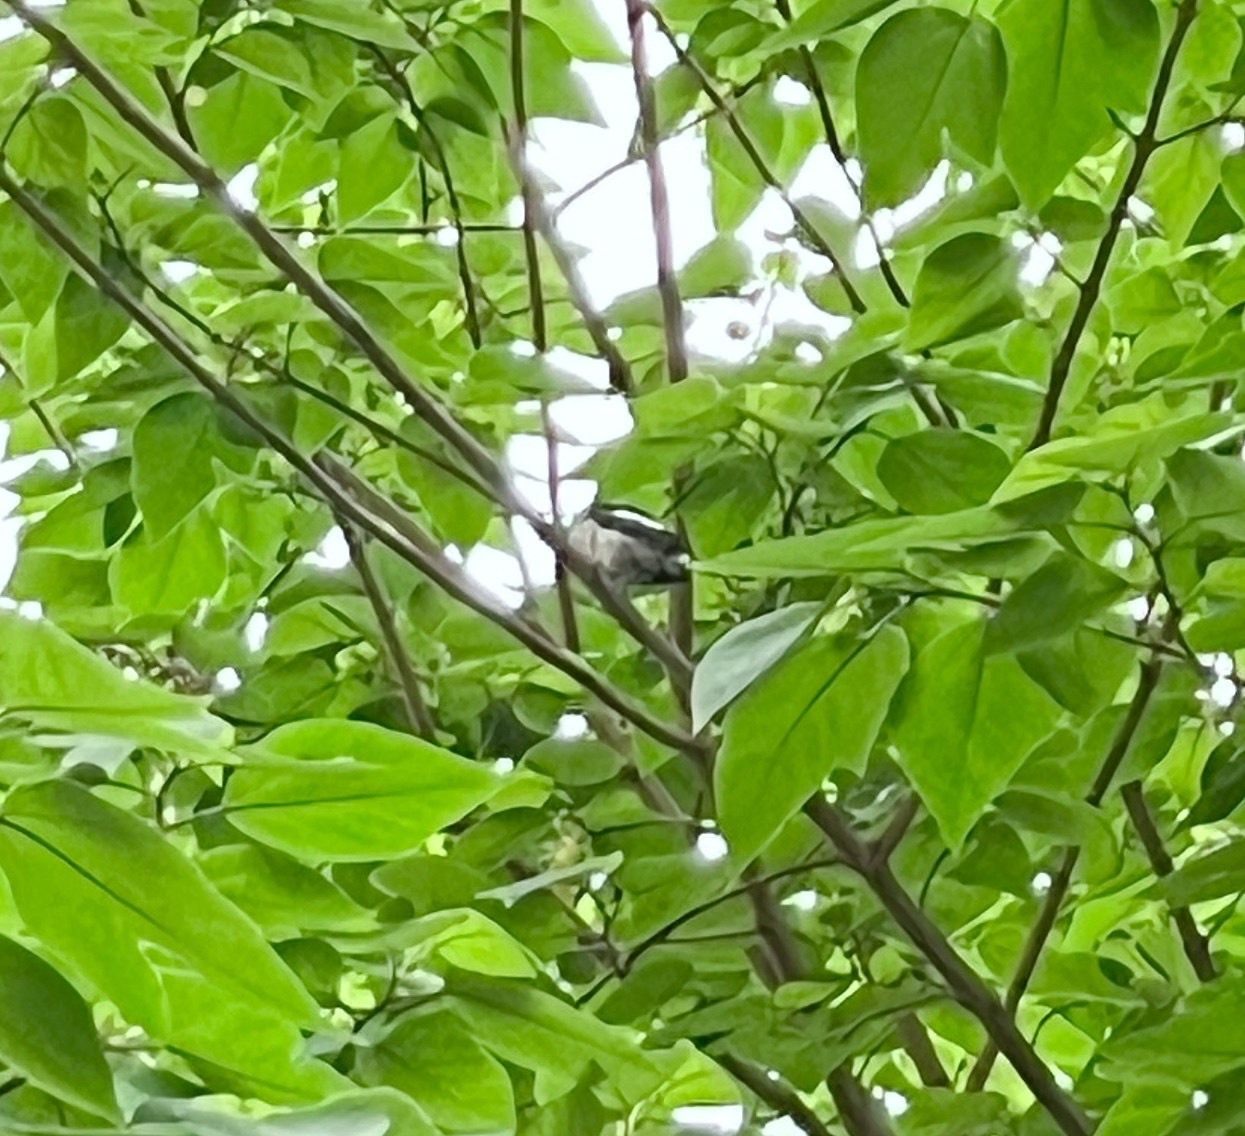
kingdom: Animalia
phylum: Chordata
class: Aves
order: Passeriformes
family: Muscicapidae
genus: Copsychus
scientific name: Copsychus saularis
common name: Oriental magpie-robin
